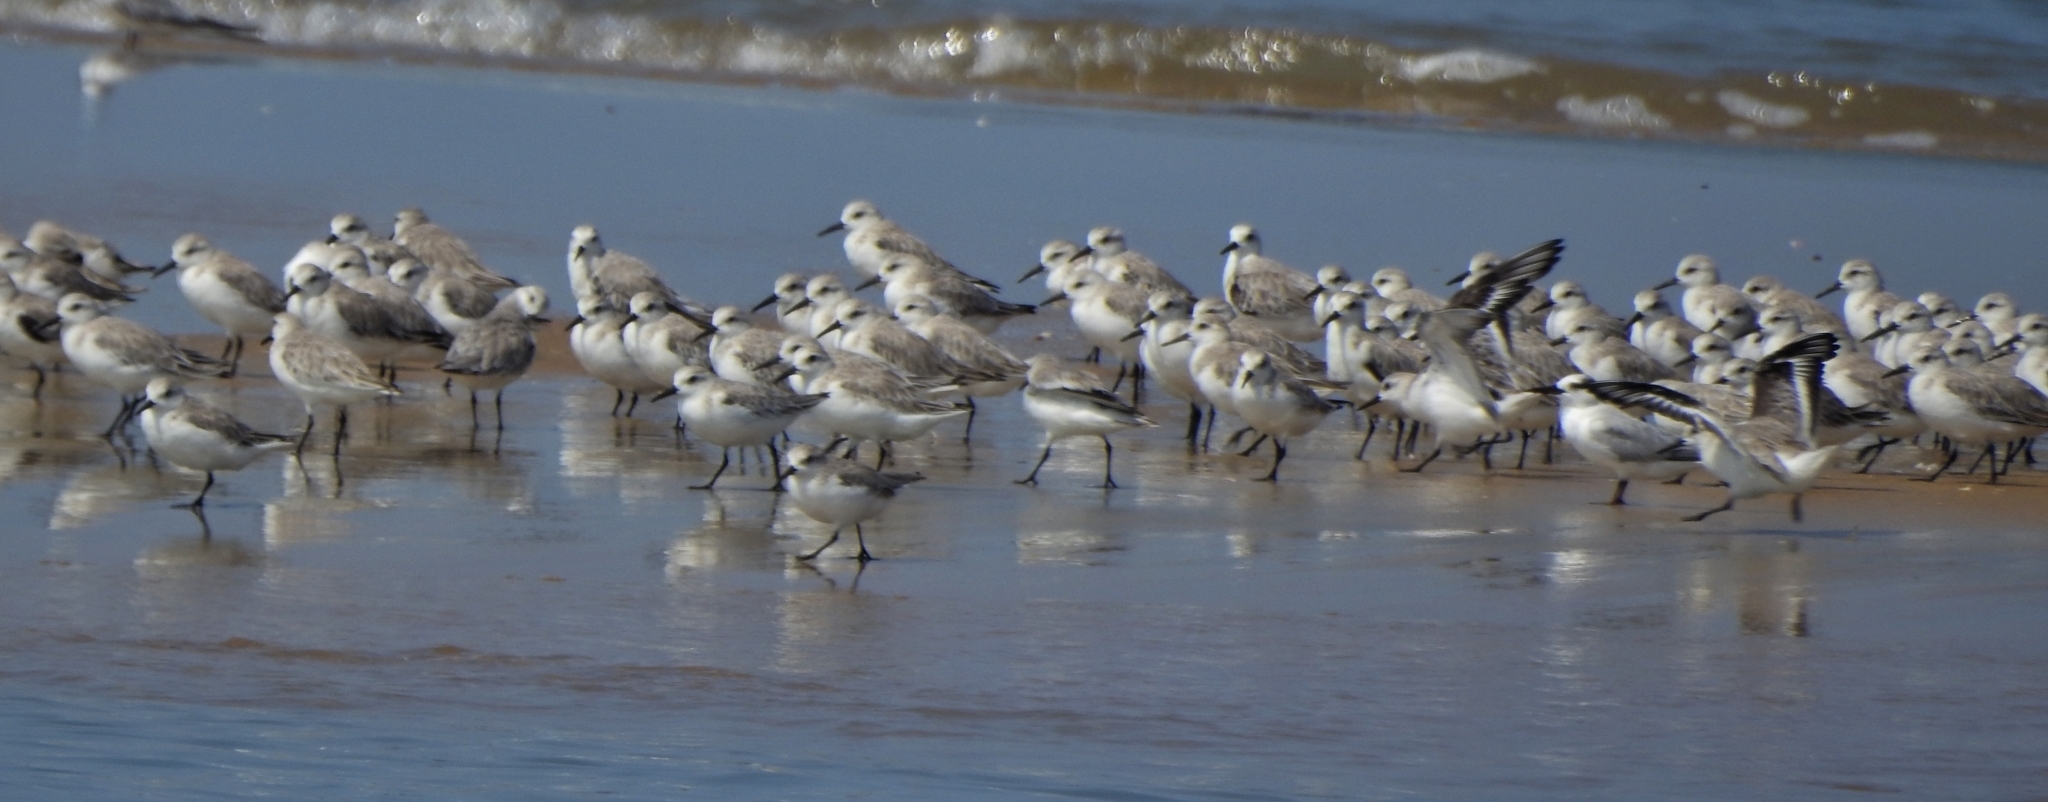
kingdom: Animalia
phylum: Chordata
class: Aves
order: Charadriiformes
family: Scolopacidae
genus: Calidris
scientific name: Calidris alba
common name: Sanderling
